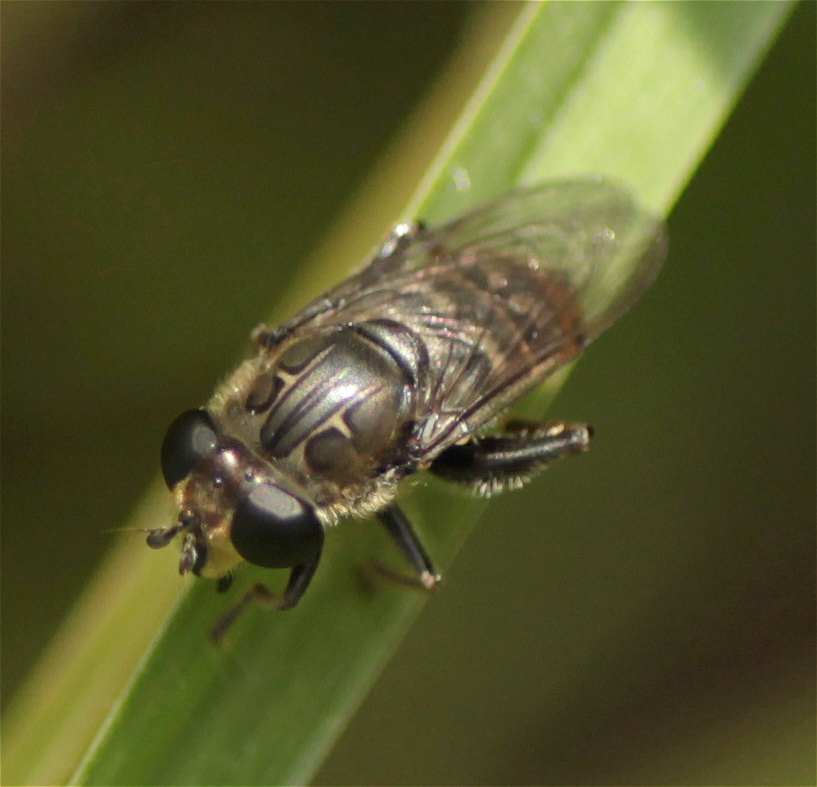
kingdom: Animalia
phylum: Arthropoda
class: Insecta
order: Diptera
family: Syrphidae
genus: Asemosyrphus
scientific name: Asemosyrphus
